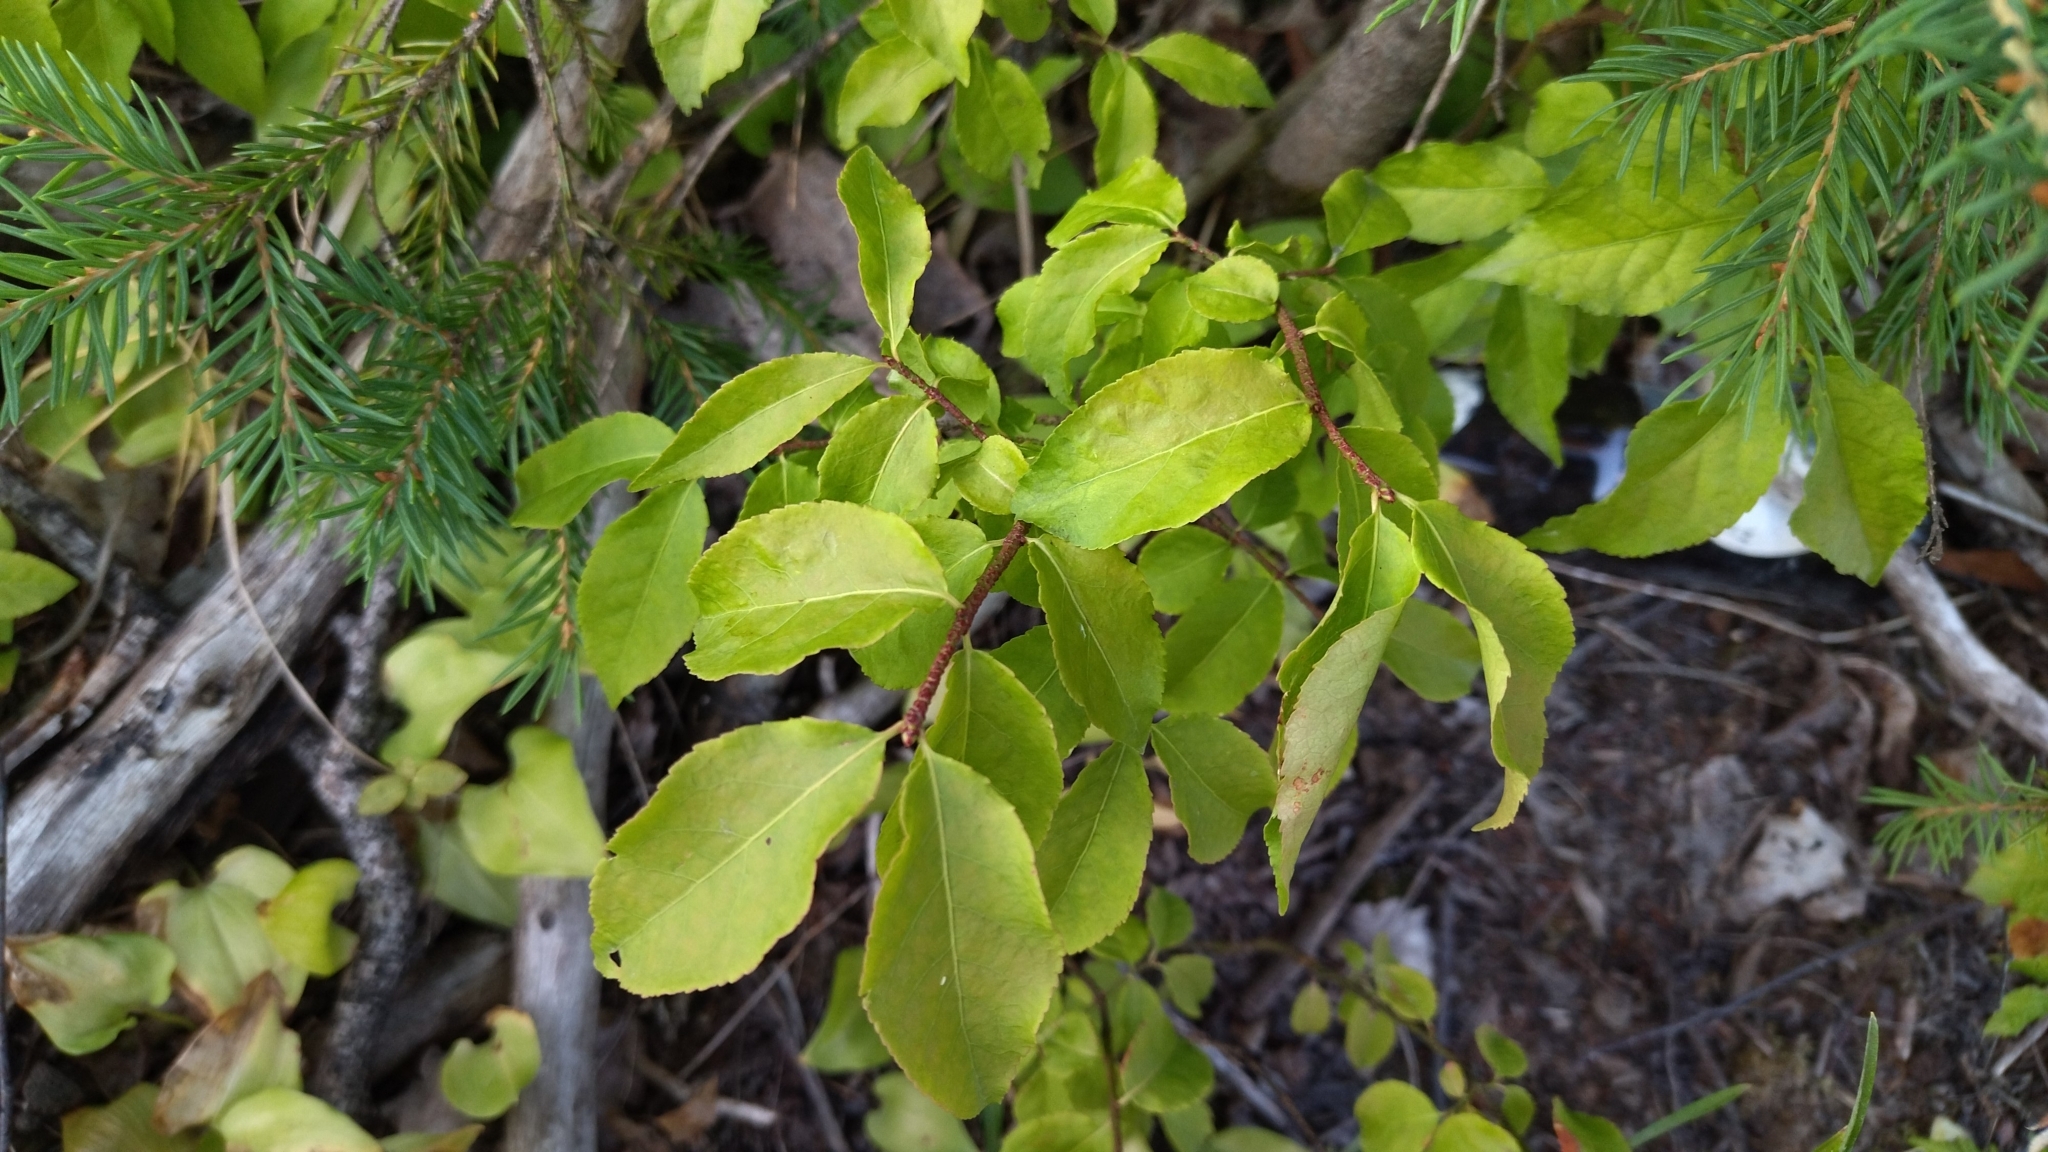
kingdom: Plantae
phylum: Tracheophyta
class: Magnoliopsida
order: Celastrales
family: Celastraceae
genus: Euonymus
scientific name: Euonymus verrucosus
